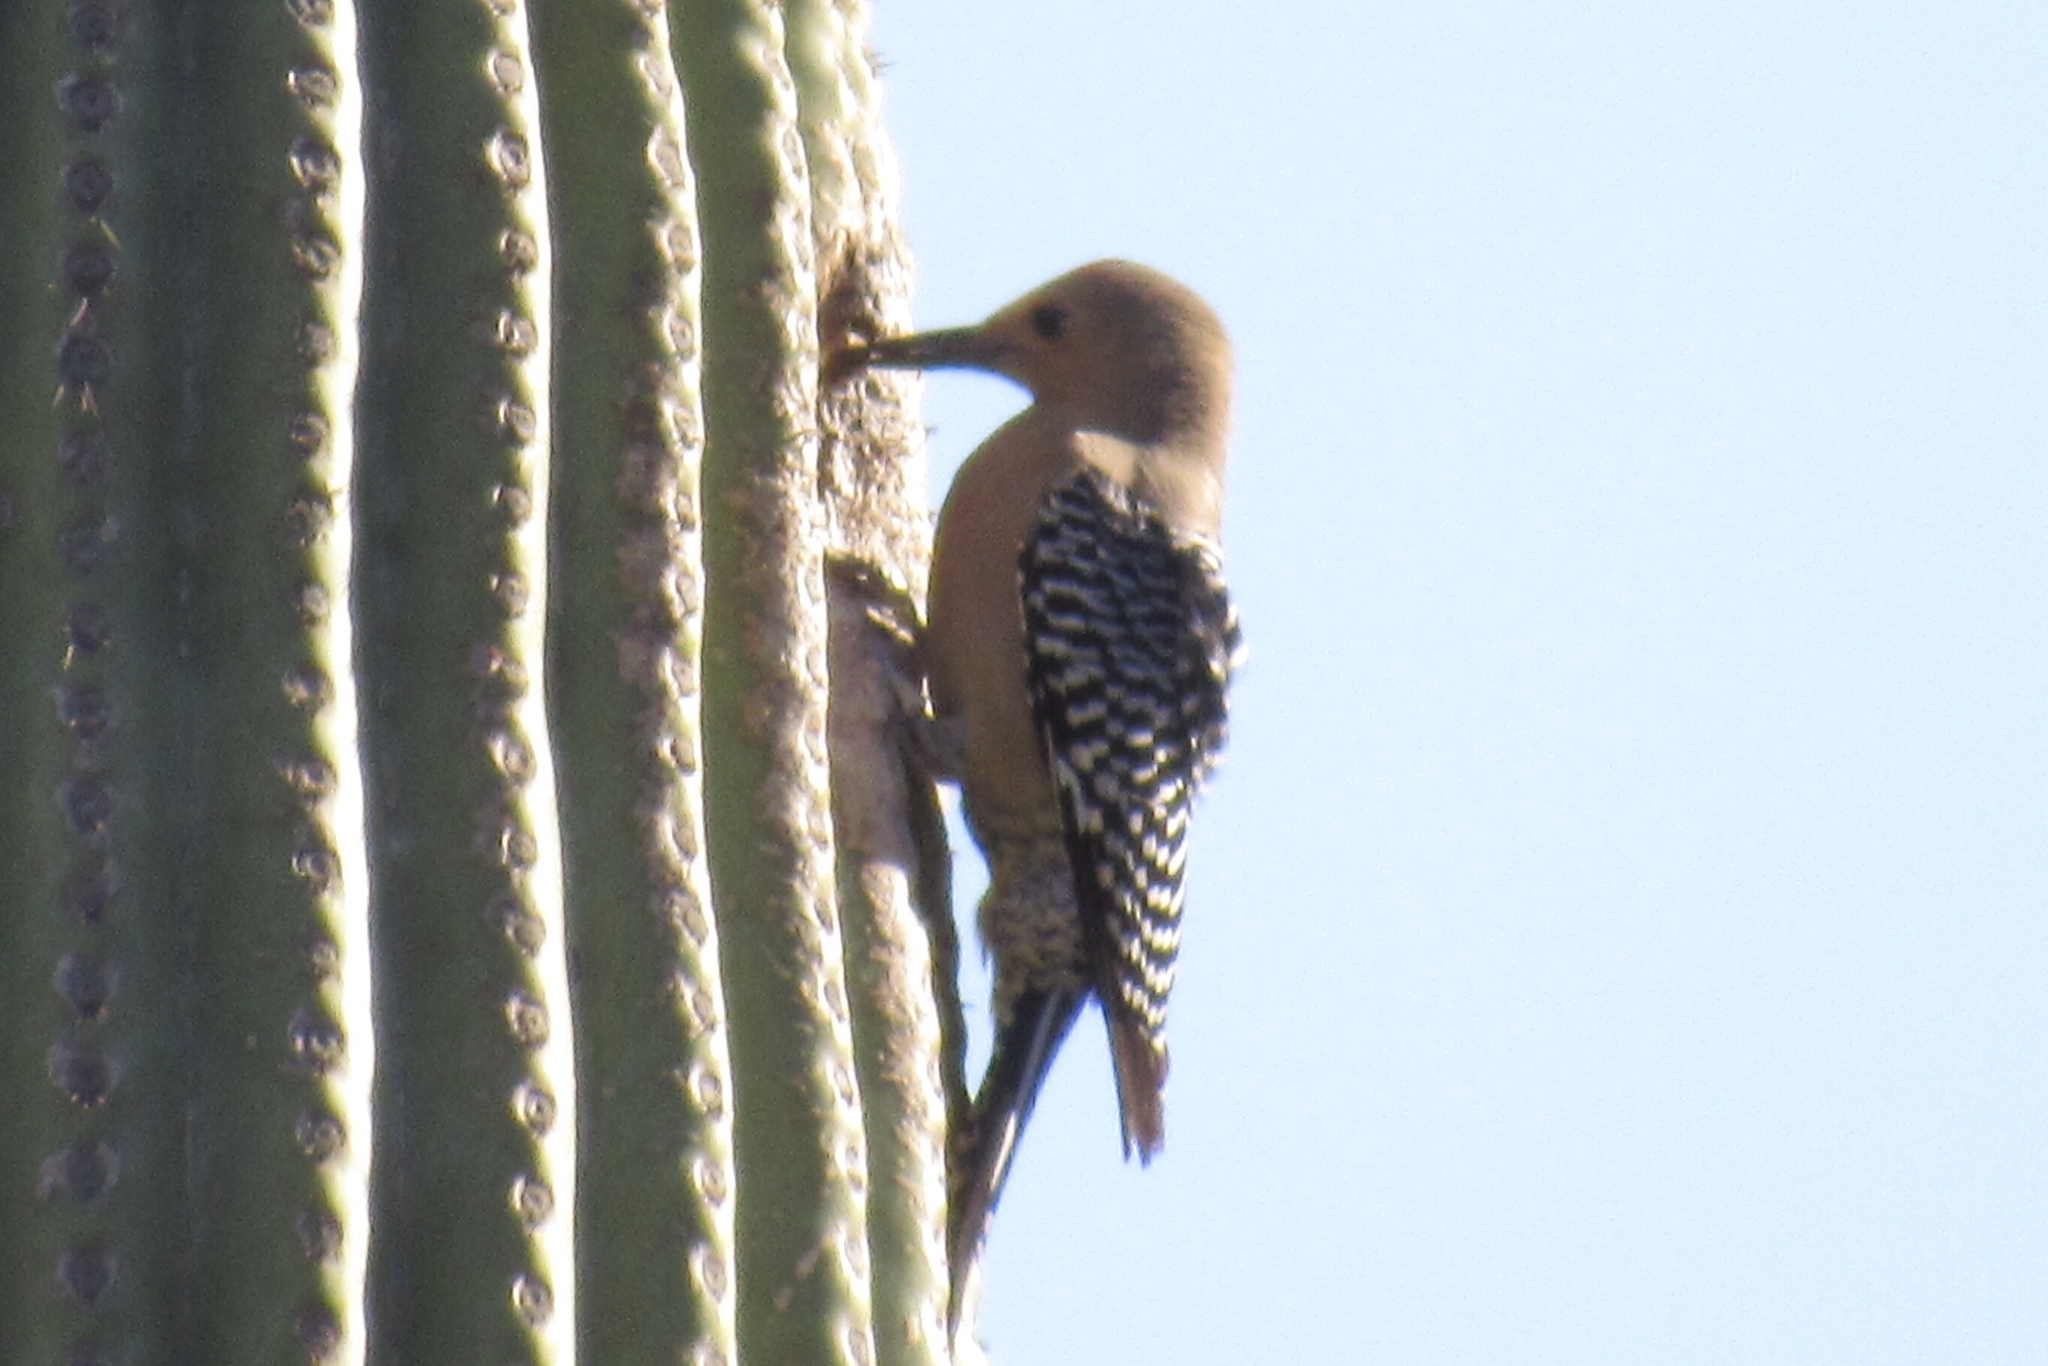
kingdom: Animalia
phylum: Chordata
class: Aves
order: Piciformes
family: Picidae
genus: Melanerpes
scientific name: Melanerpes uropygialis
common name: Gila woodpecker
